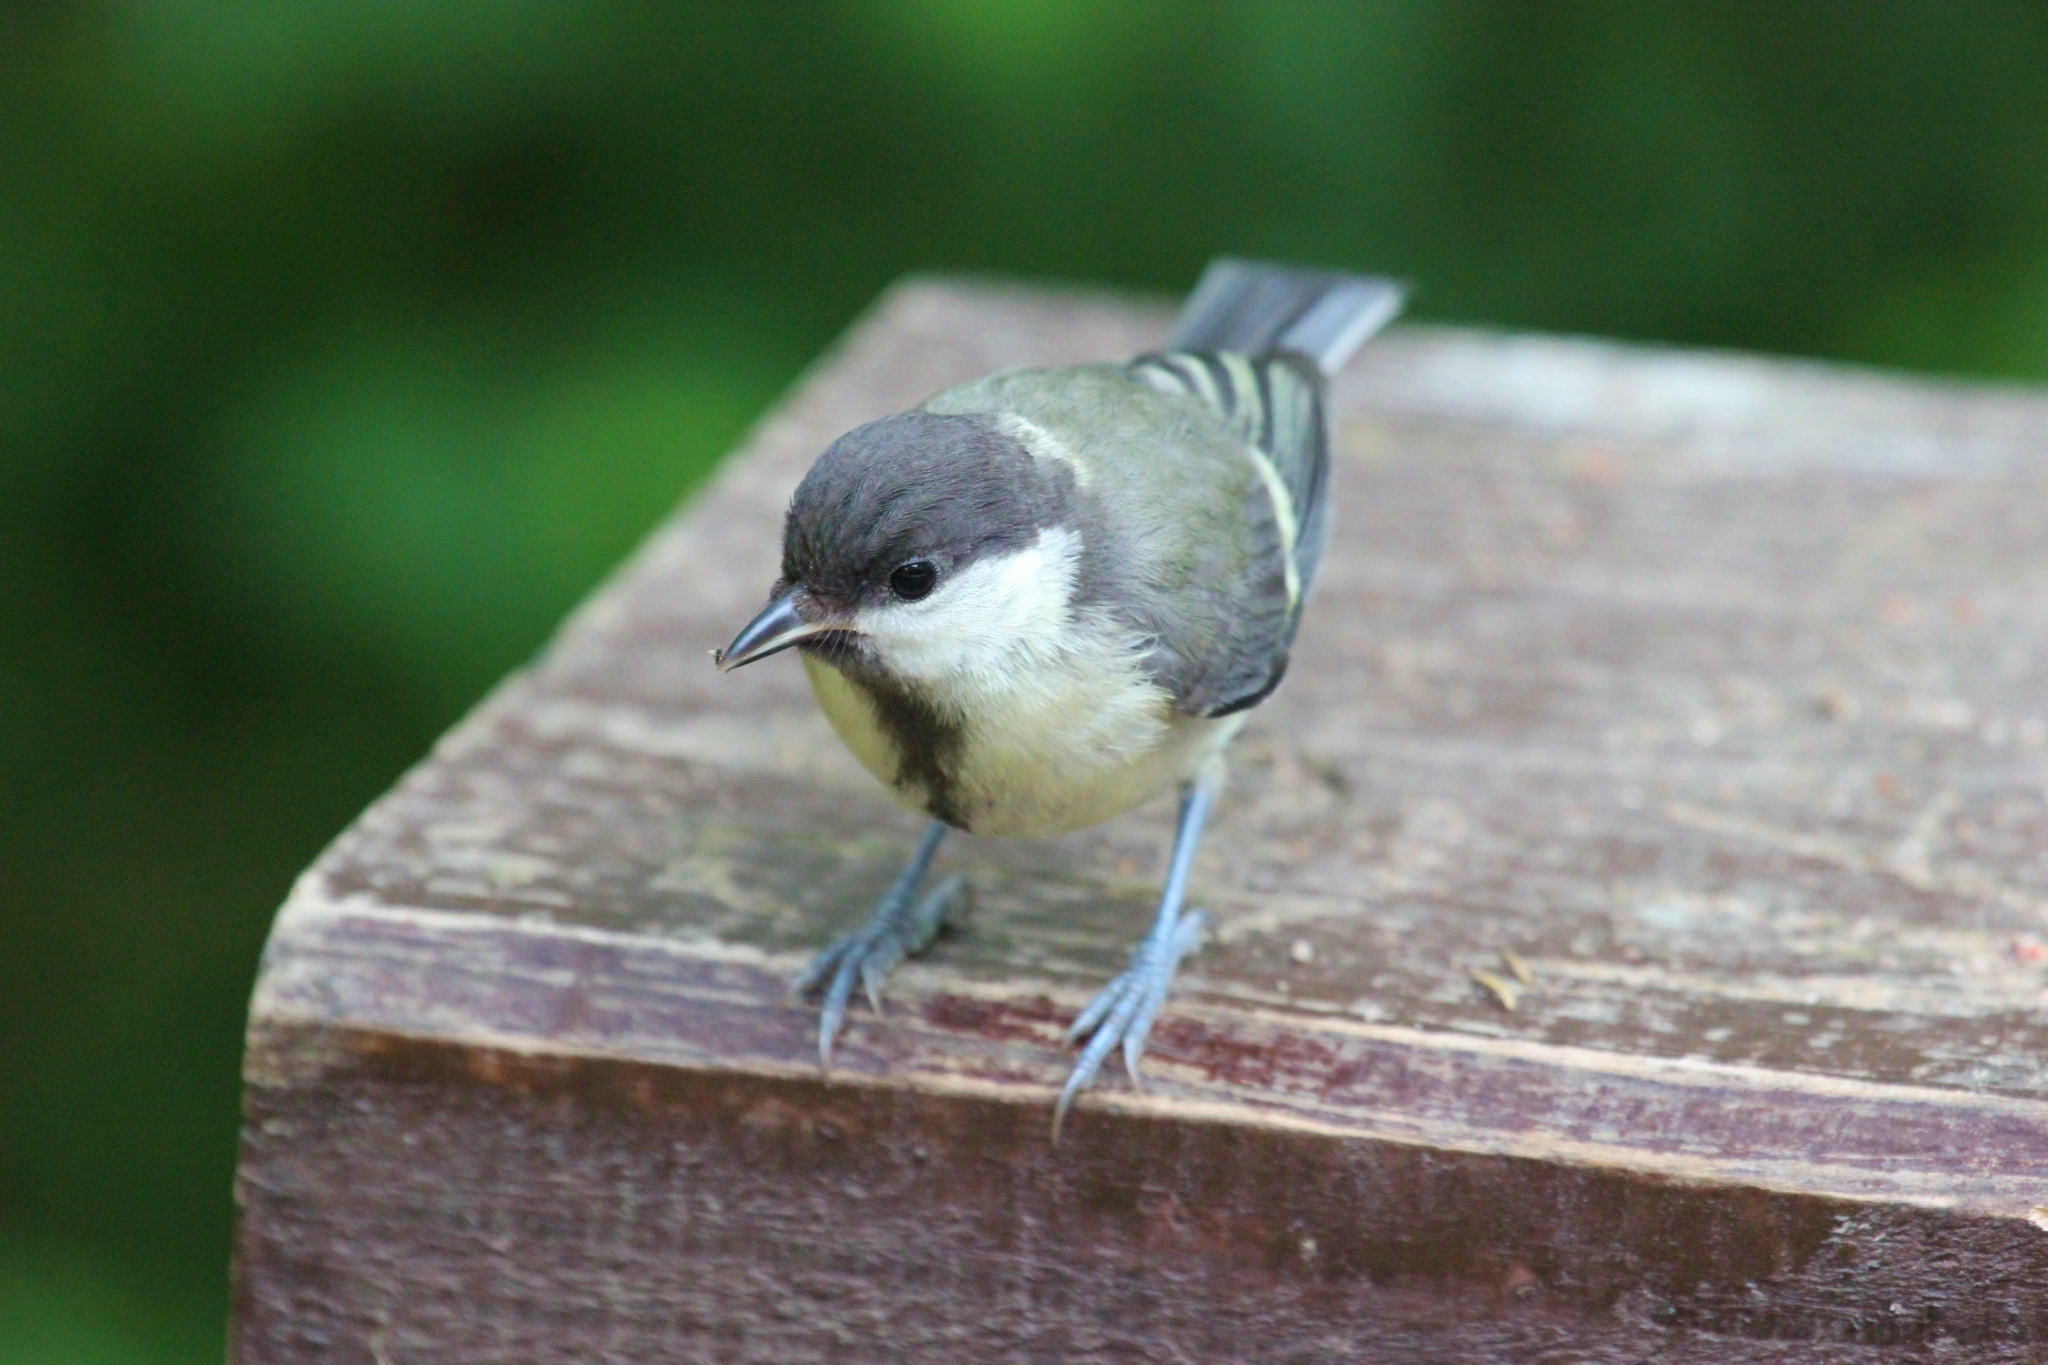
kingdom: Animalia
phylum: Chordata
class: Aves
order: Passeriformes
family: Paridae
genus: Parus
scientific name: Parus major
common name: Great tit
